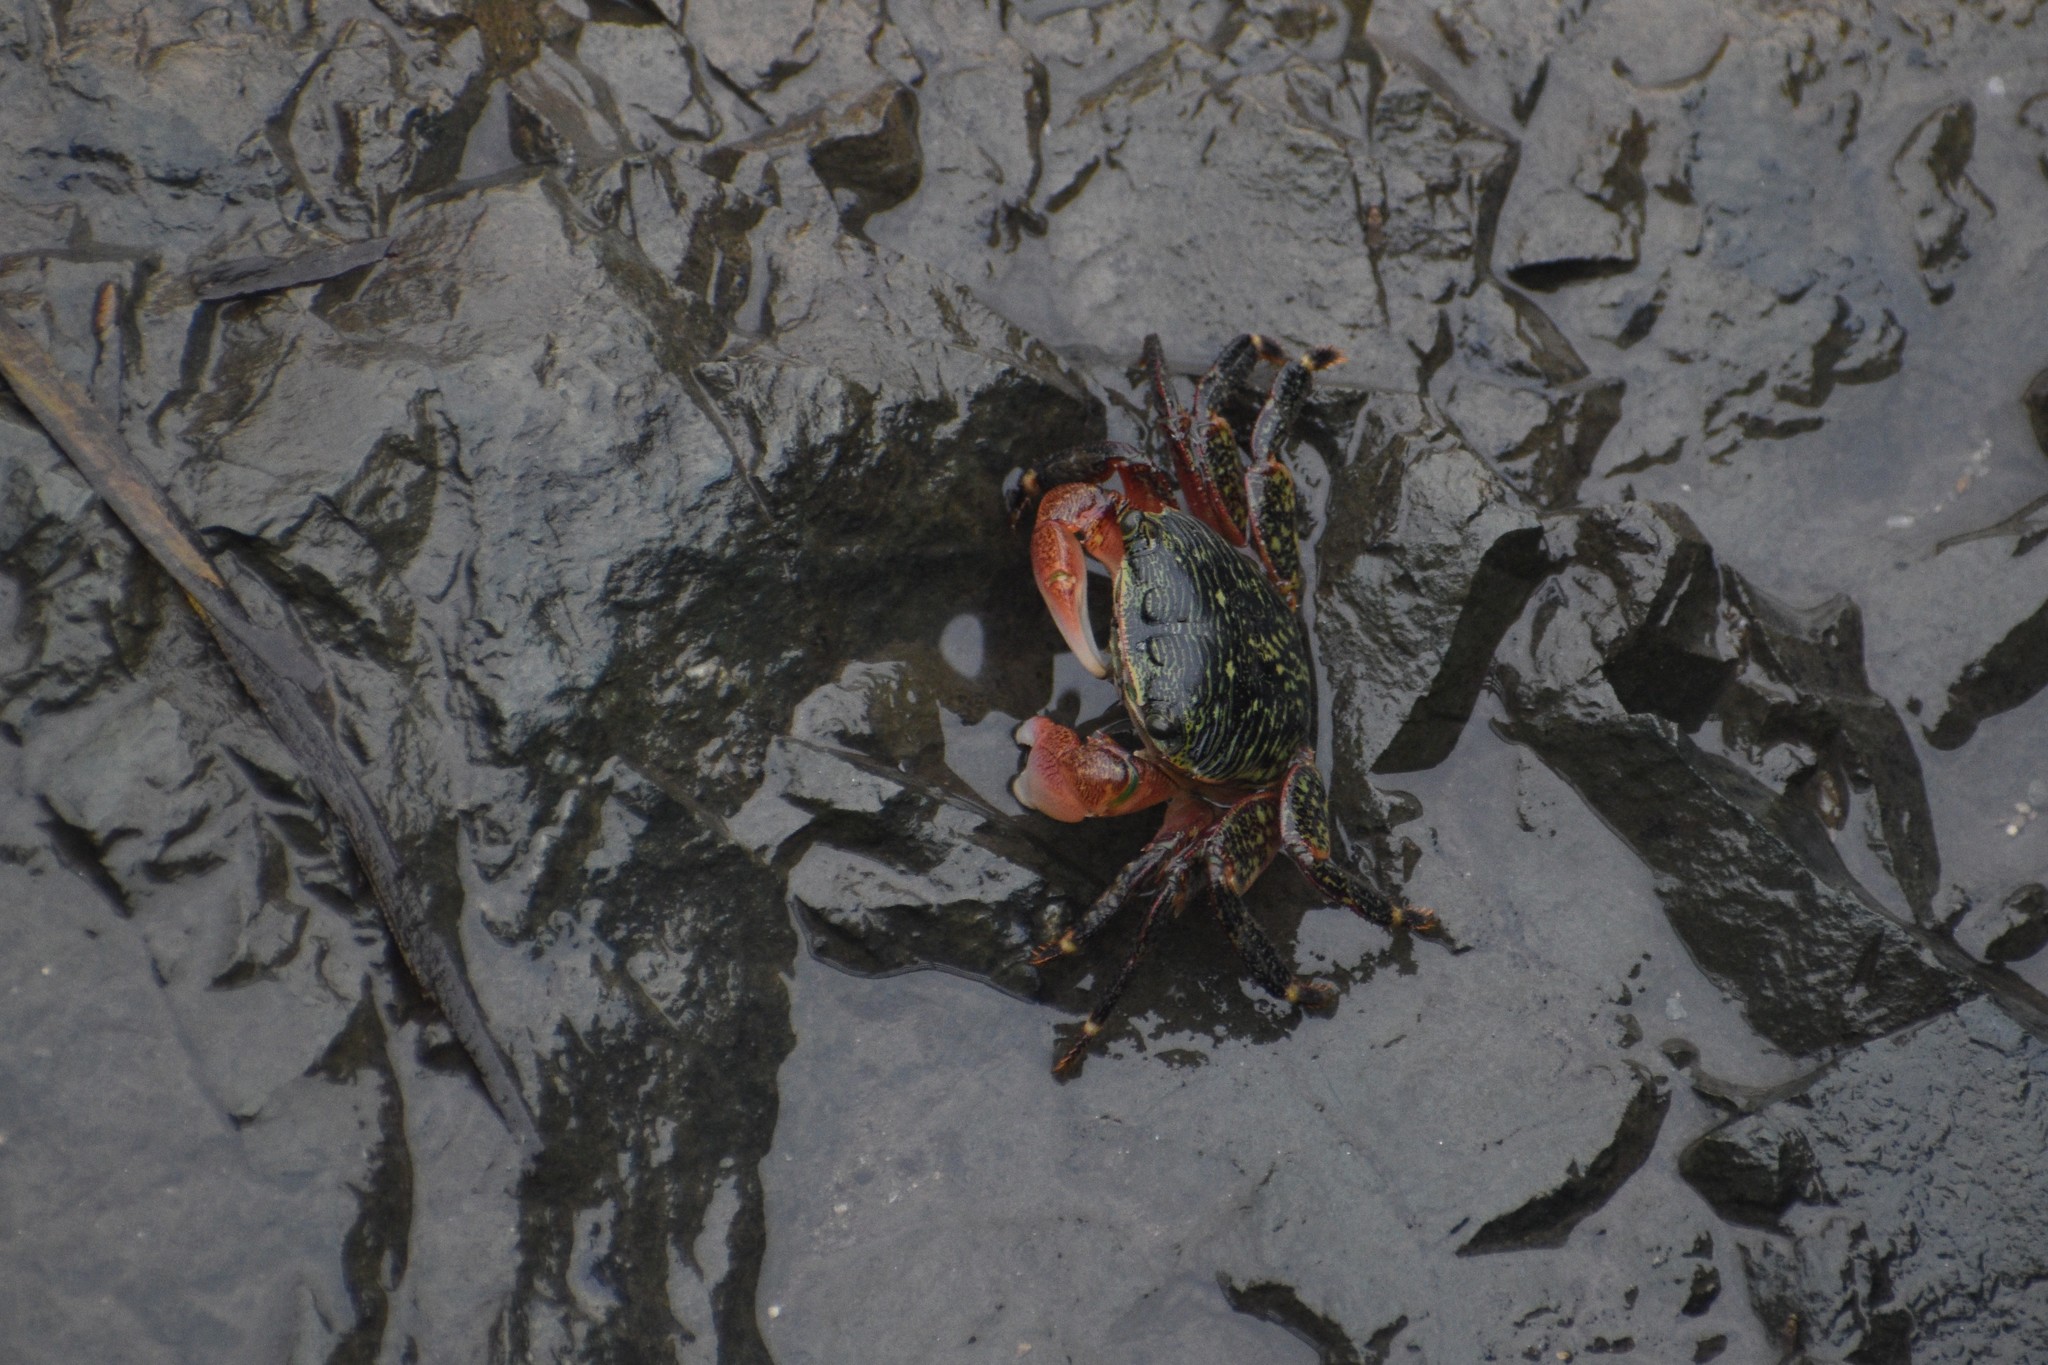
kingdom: Animalia
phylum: Arthropoda
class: Malacostraca
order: Decapoda
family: Grapsidae
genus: Pachygrapsus
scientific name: Pachygrapsus crassipes
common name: Striped shore crab
